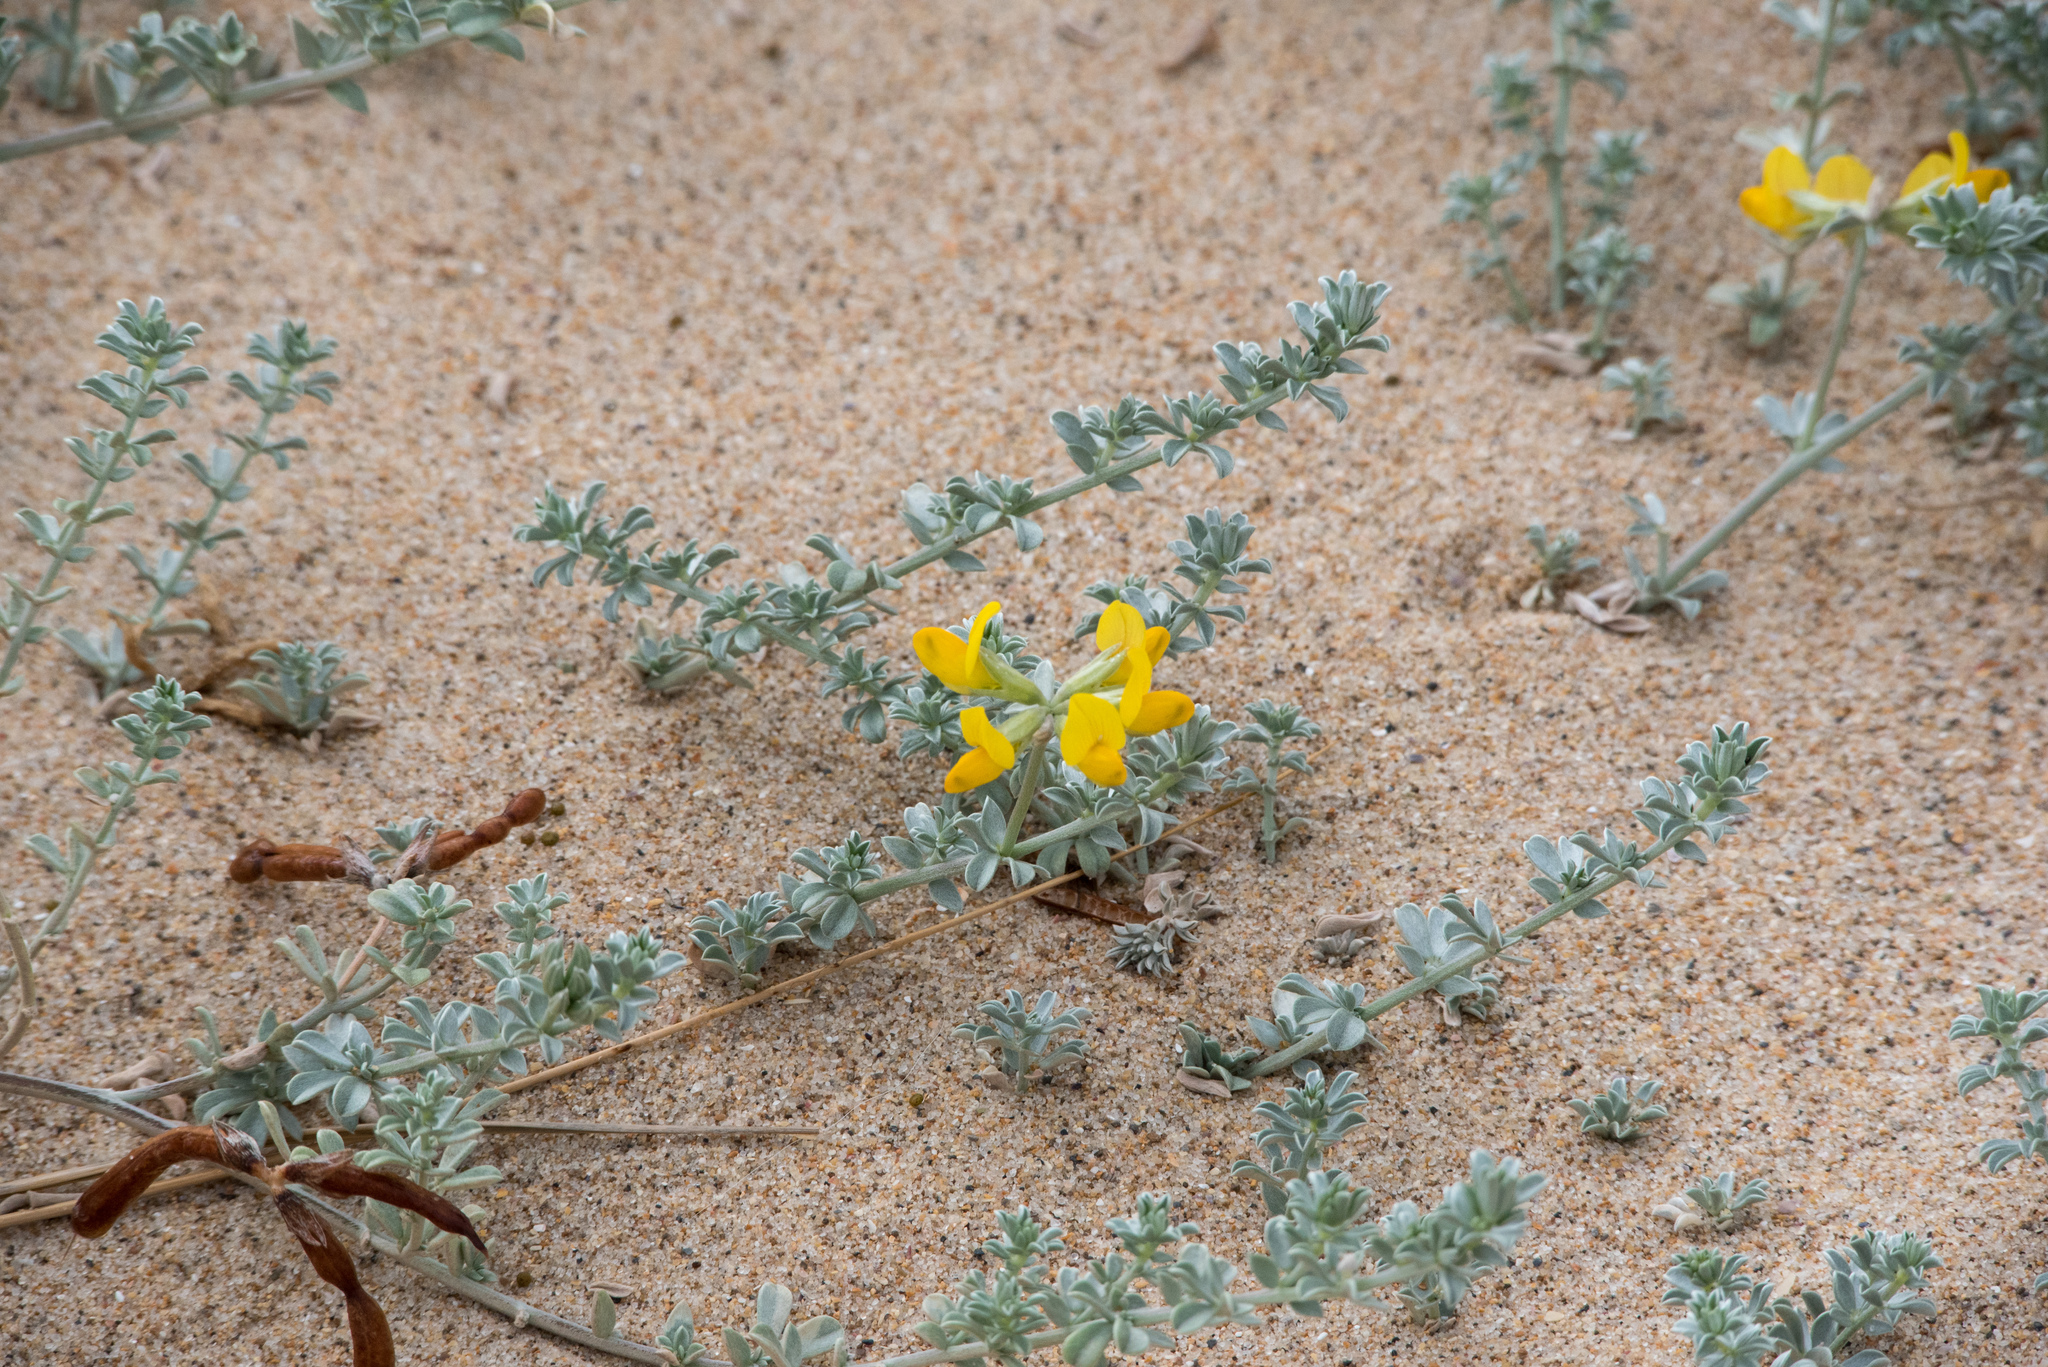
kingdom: Plantae
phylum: Tracheophyta
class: Magnoliopsida
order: Fabales
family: Fabaceae
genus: Lotus
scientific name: Lotus creticus
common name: Cretan bird's-foot trefoil
